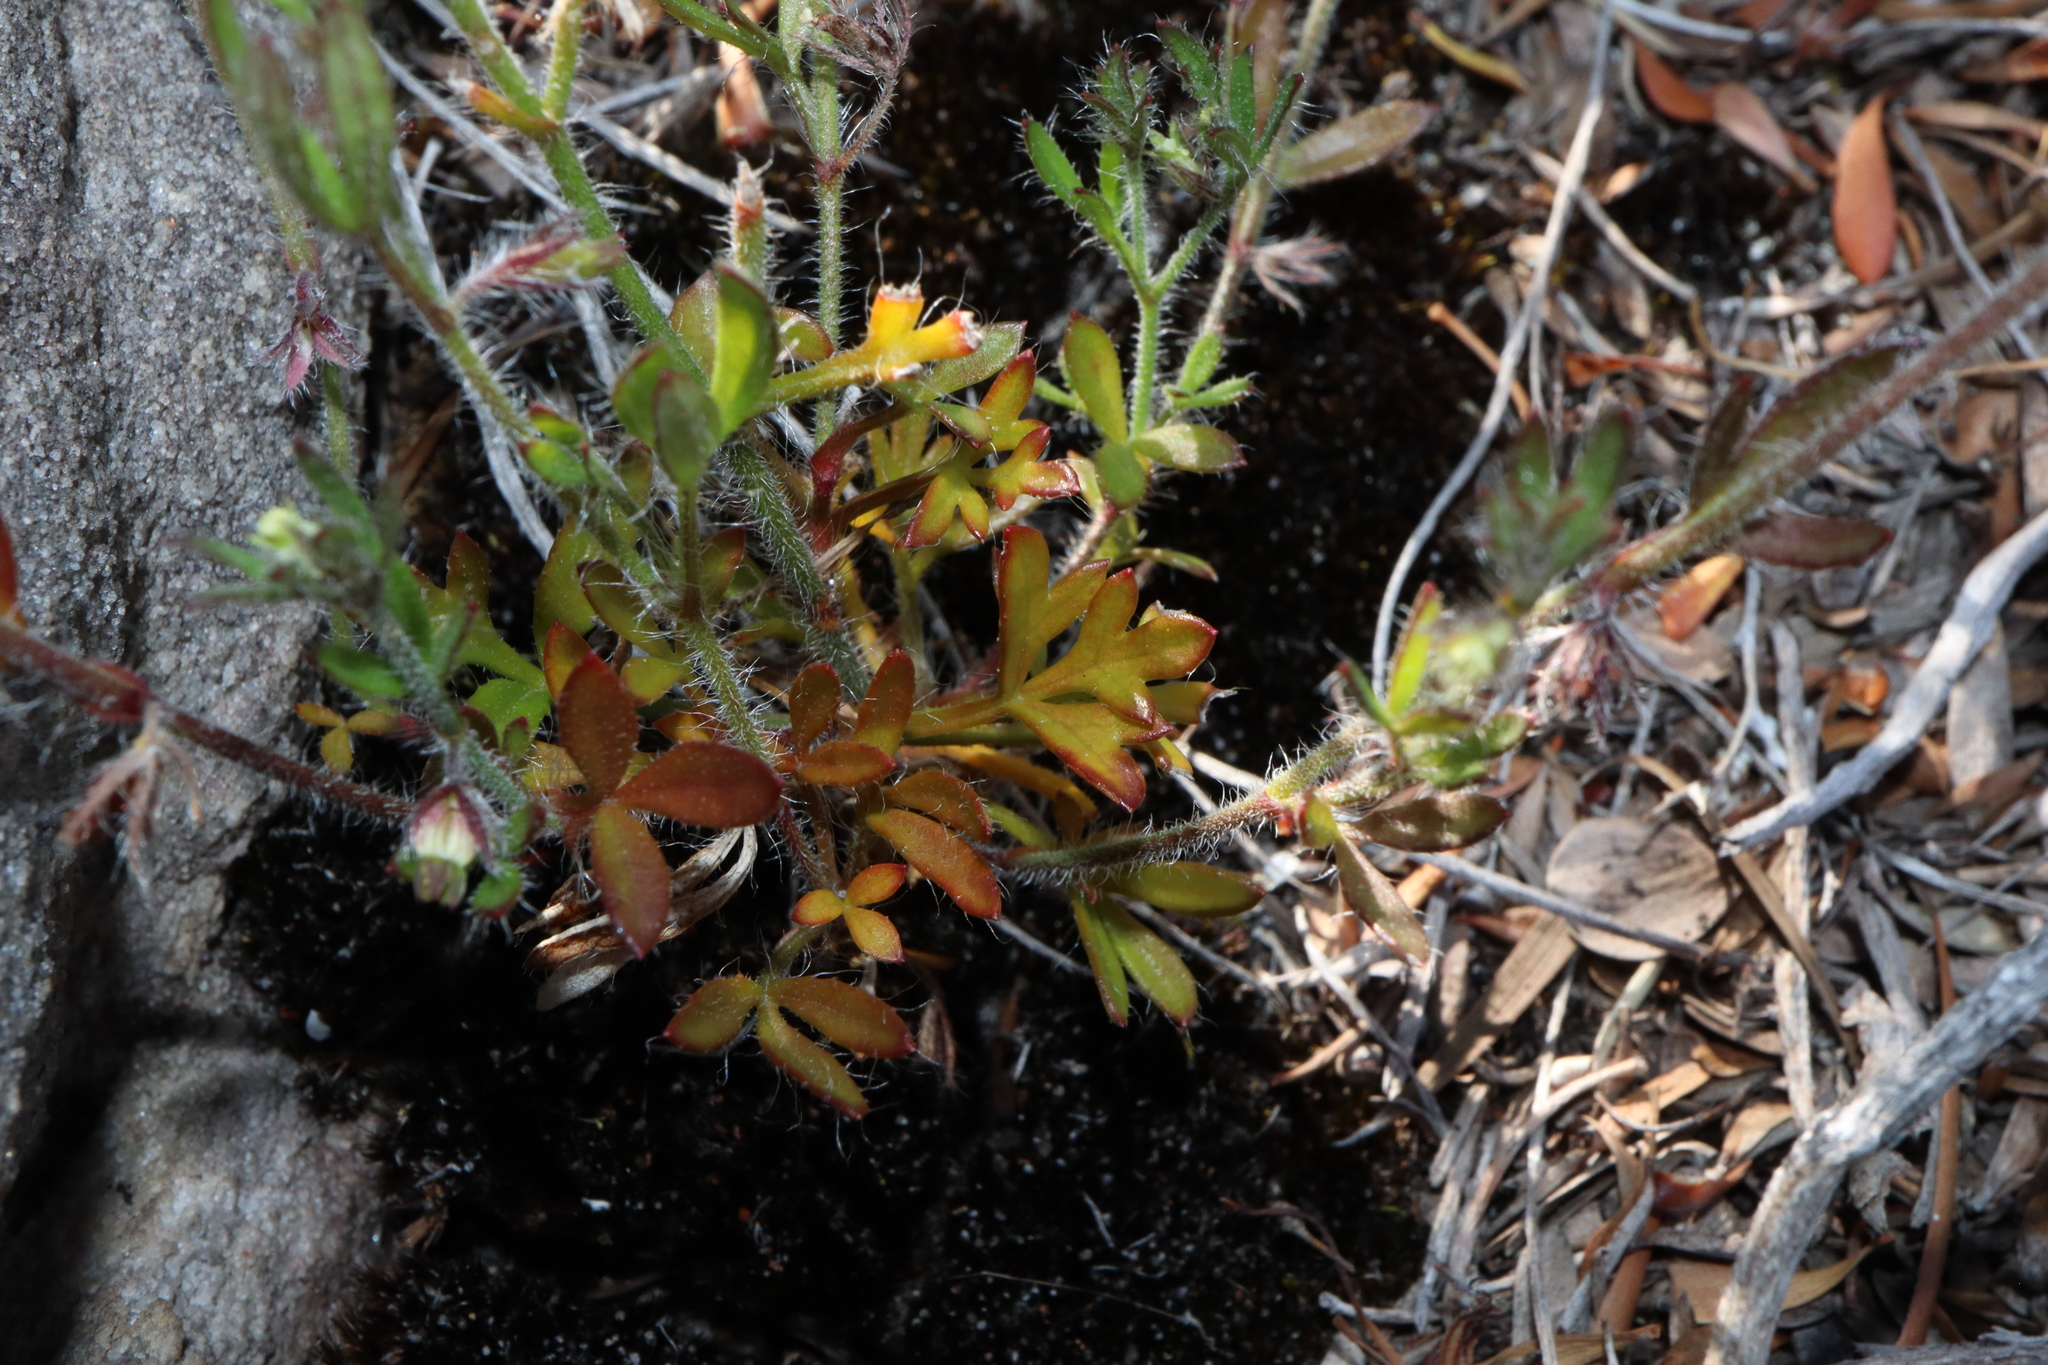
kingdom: Plantae
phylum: Tracheophyta
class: Magnoliopsida
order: Apiales
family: Apiaceae
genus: Xanthosia
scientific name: Xanthosia huegelii
